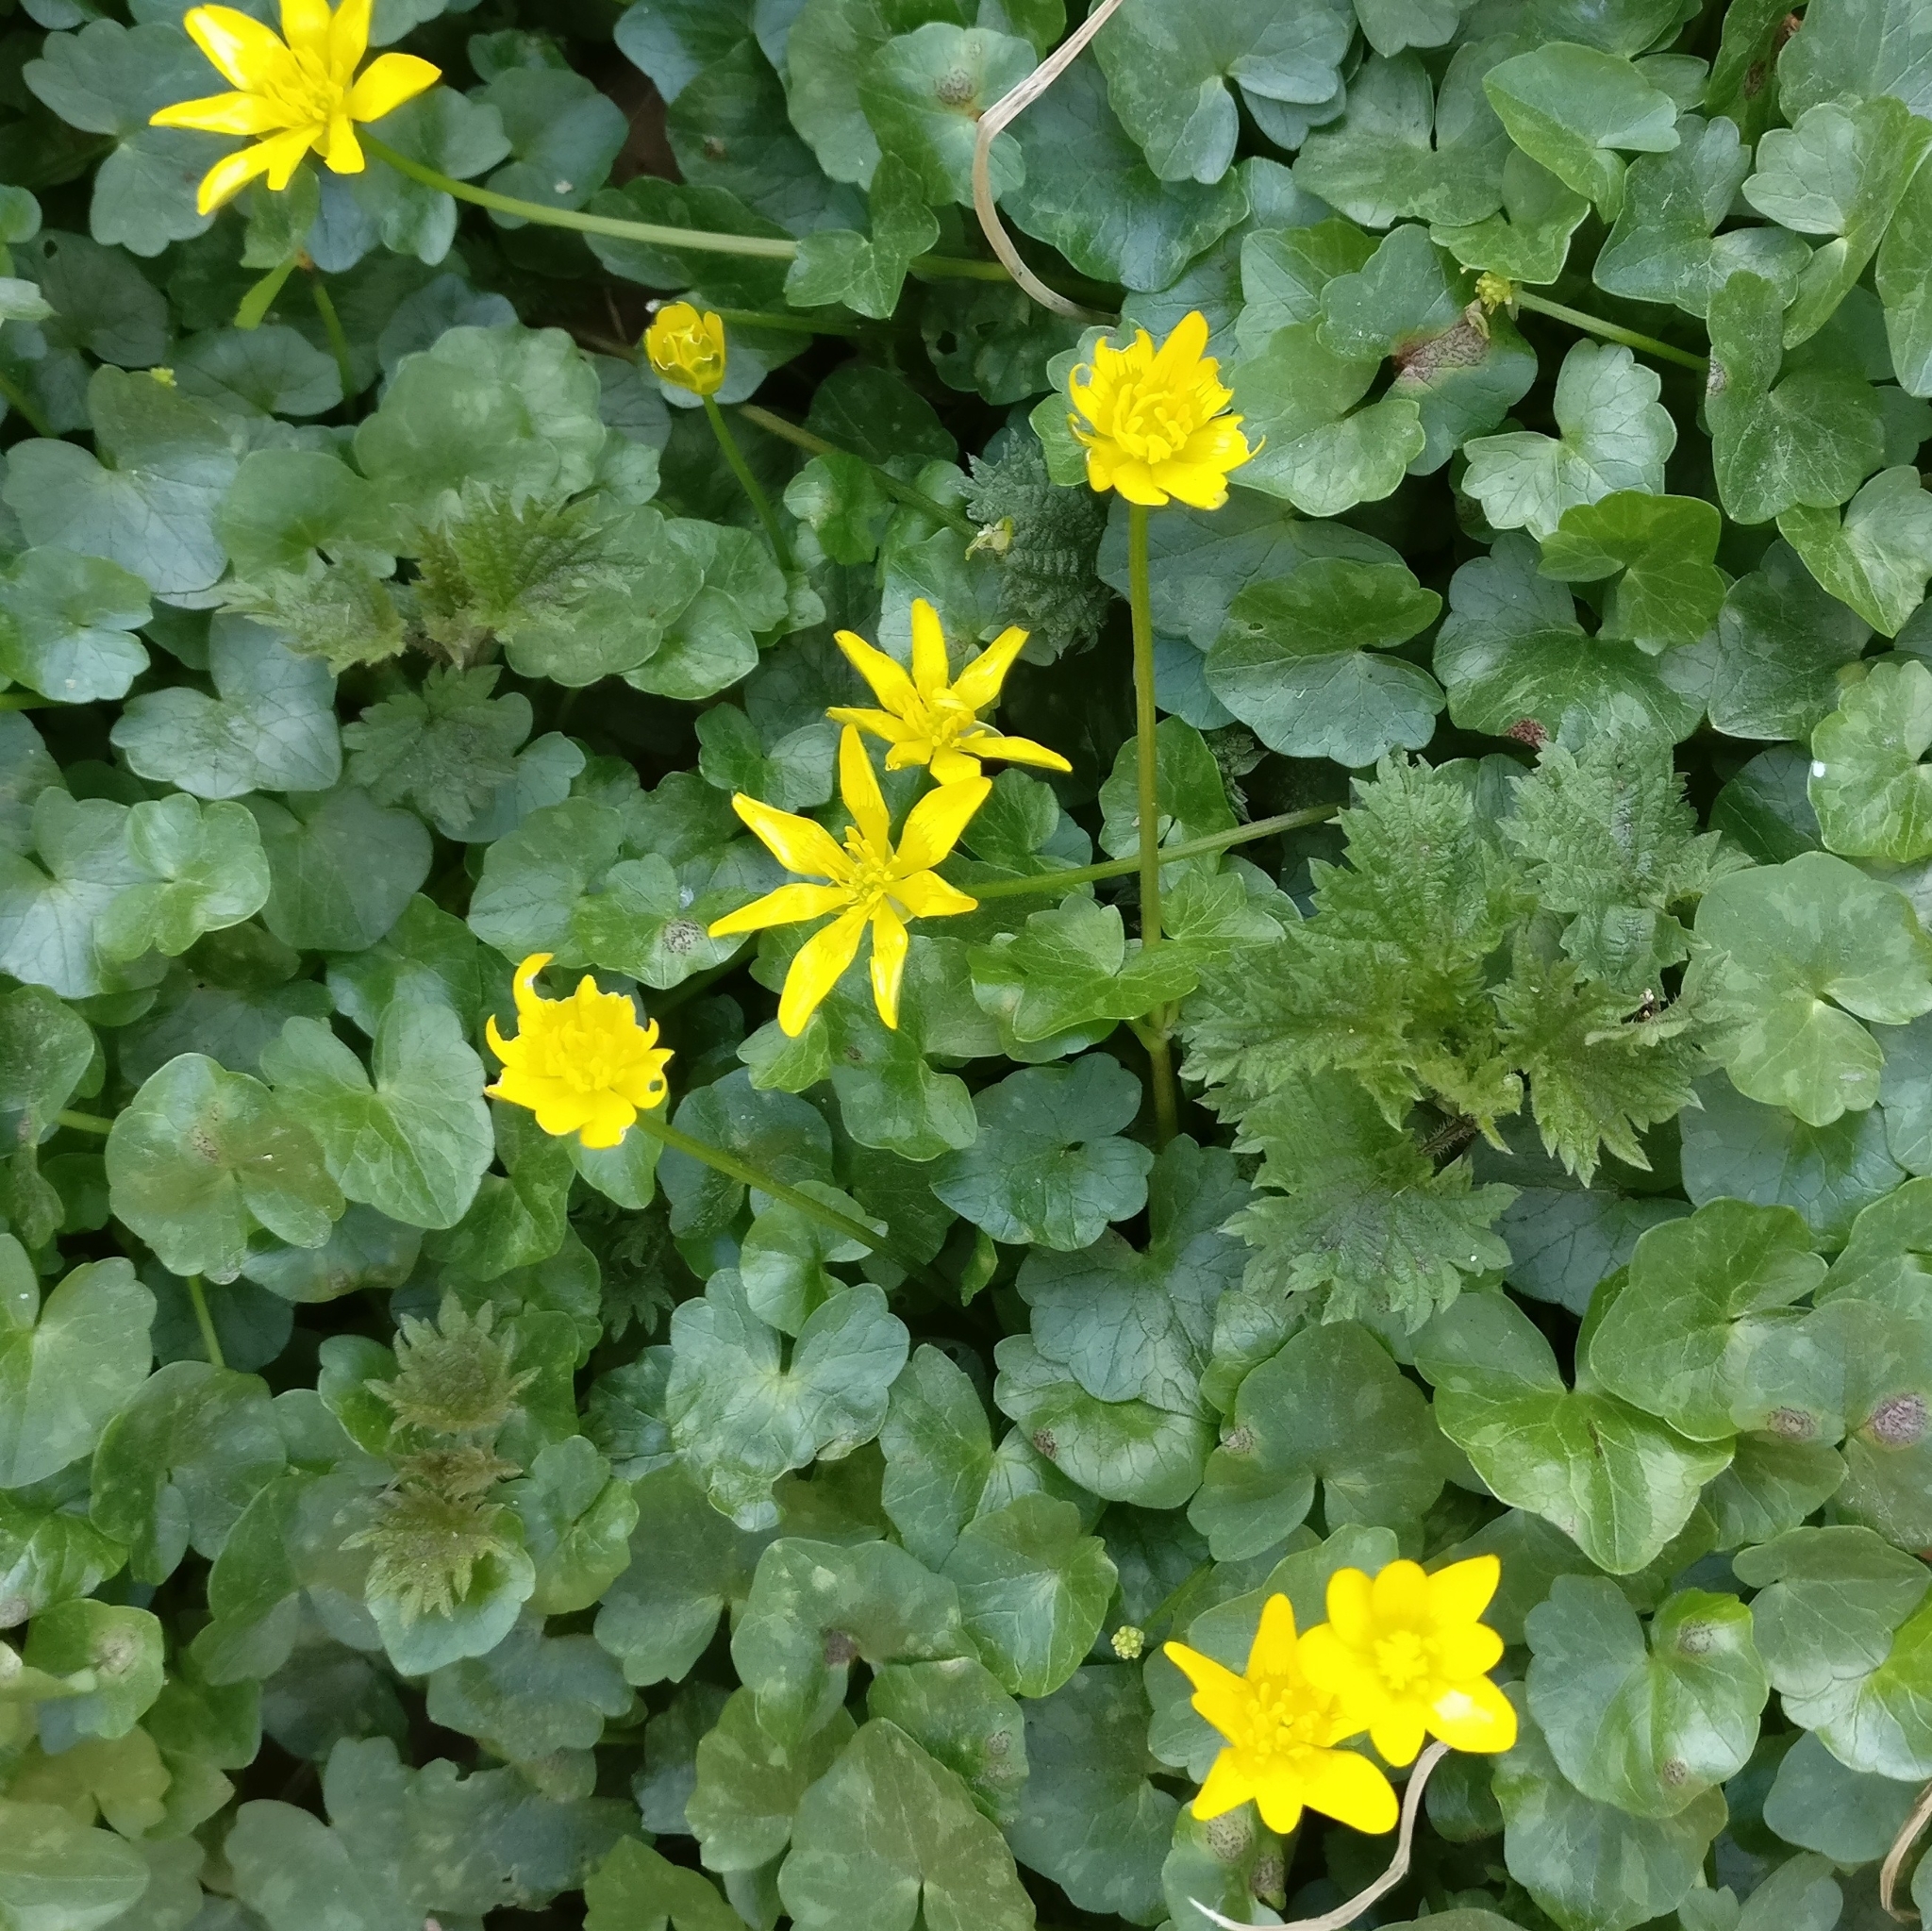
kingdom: Plantae
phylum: Tracheophyta
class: Magnoliopsida
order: Ranunculales
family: Ranunculaceae
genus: Ficaria
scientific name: Ficaria verna
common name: Lesser celandine
